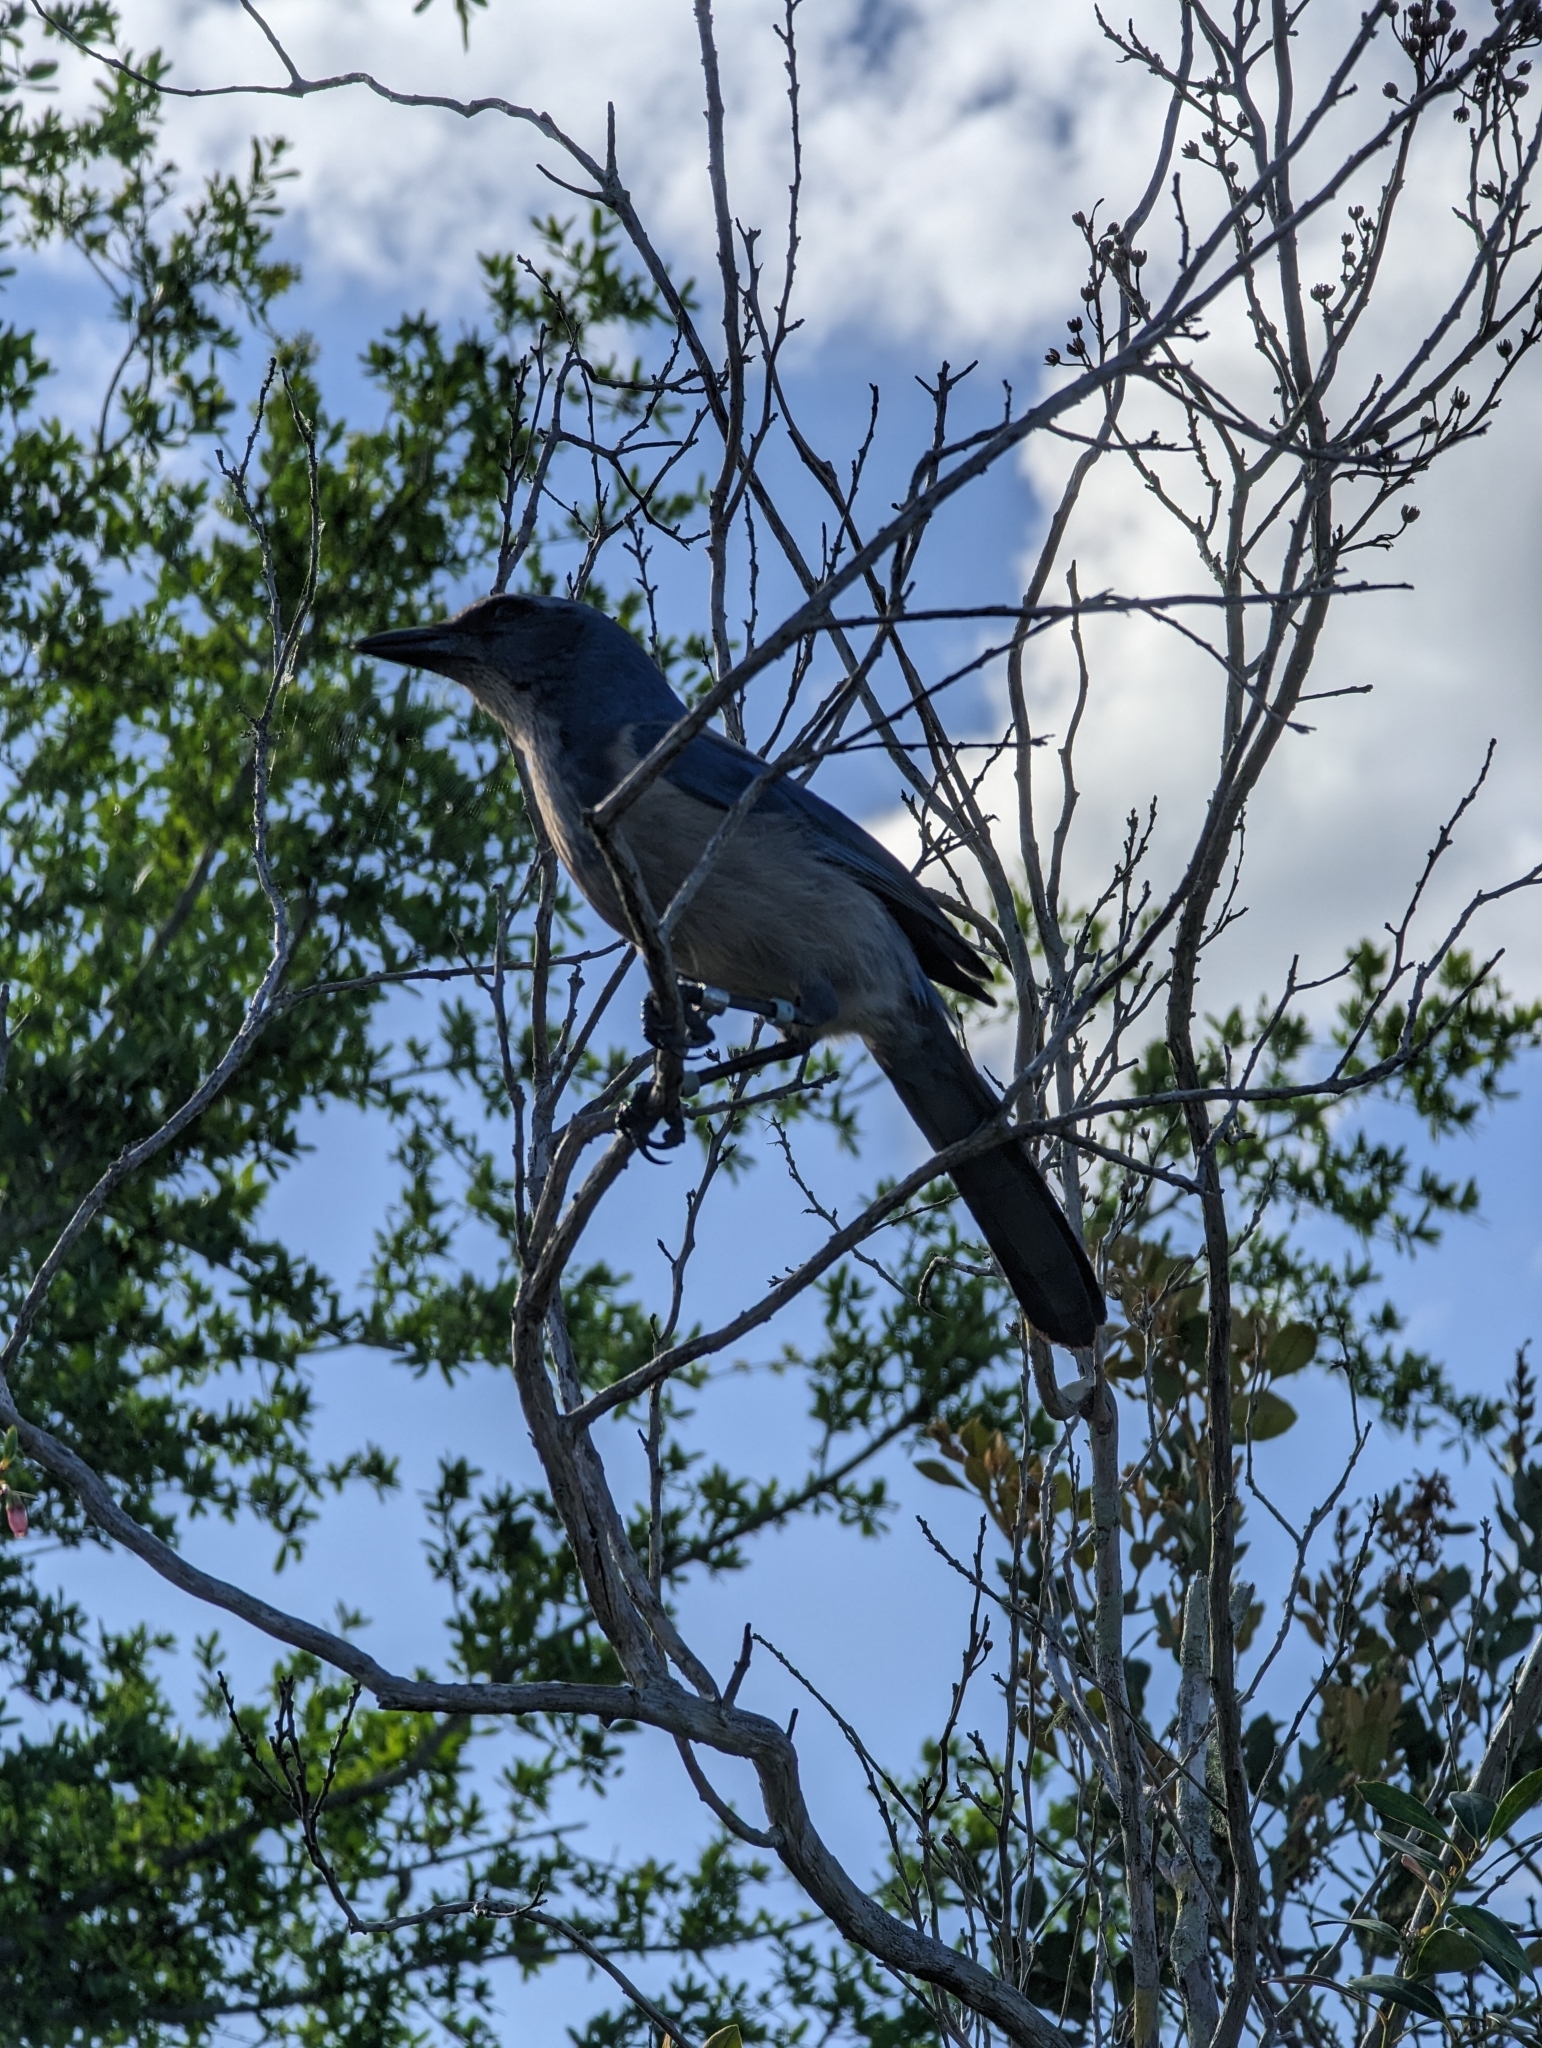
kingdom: Animalia
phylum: Chordata
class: Aves
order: Passeriformes
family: Corvidae
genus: Aphelocoma
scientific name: Aphelocoma coerulescens
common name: Florida scrub jay
